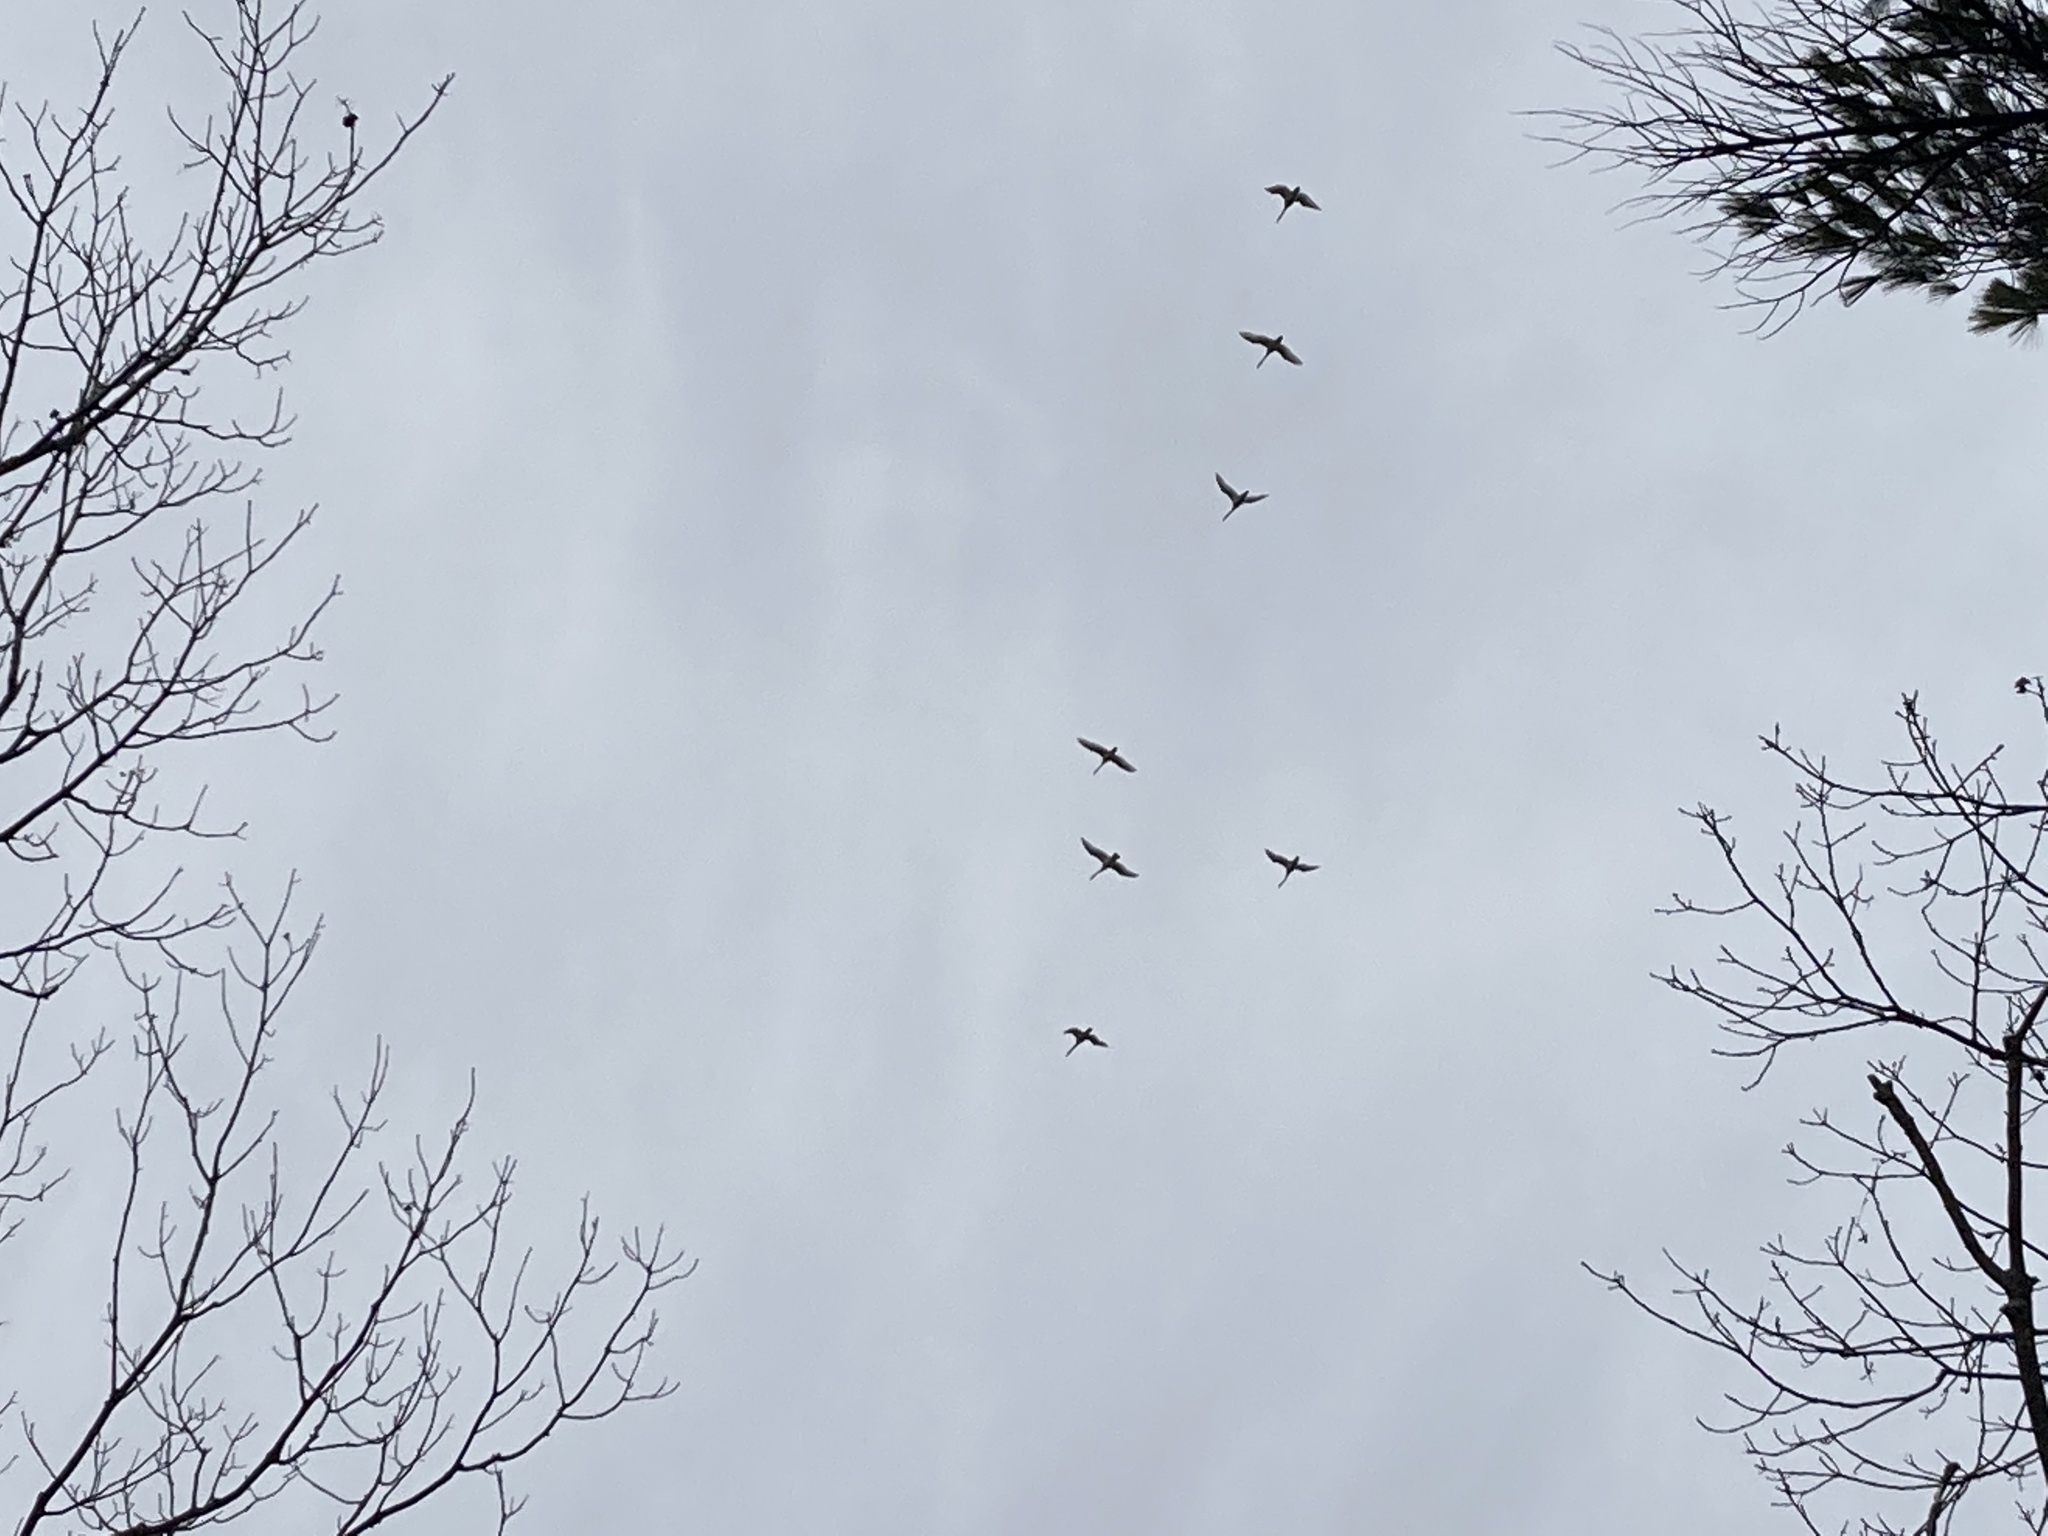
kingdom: Animalia
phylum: Chordata
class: Aves
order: Anseriformes
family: Anatidae
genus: Cygnus
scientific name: Cygnus columbianus
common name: Tundra swan
